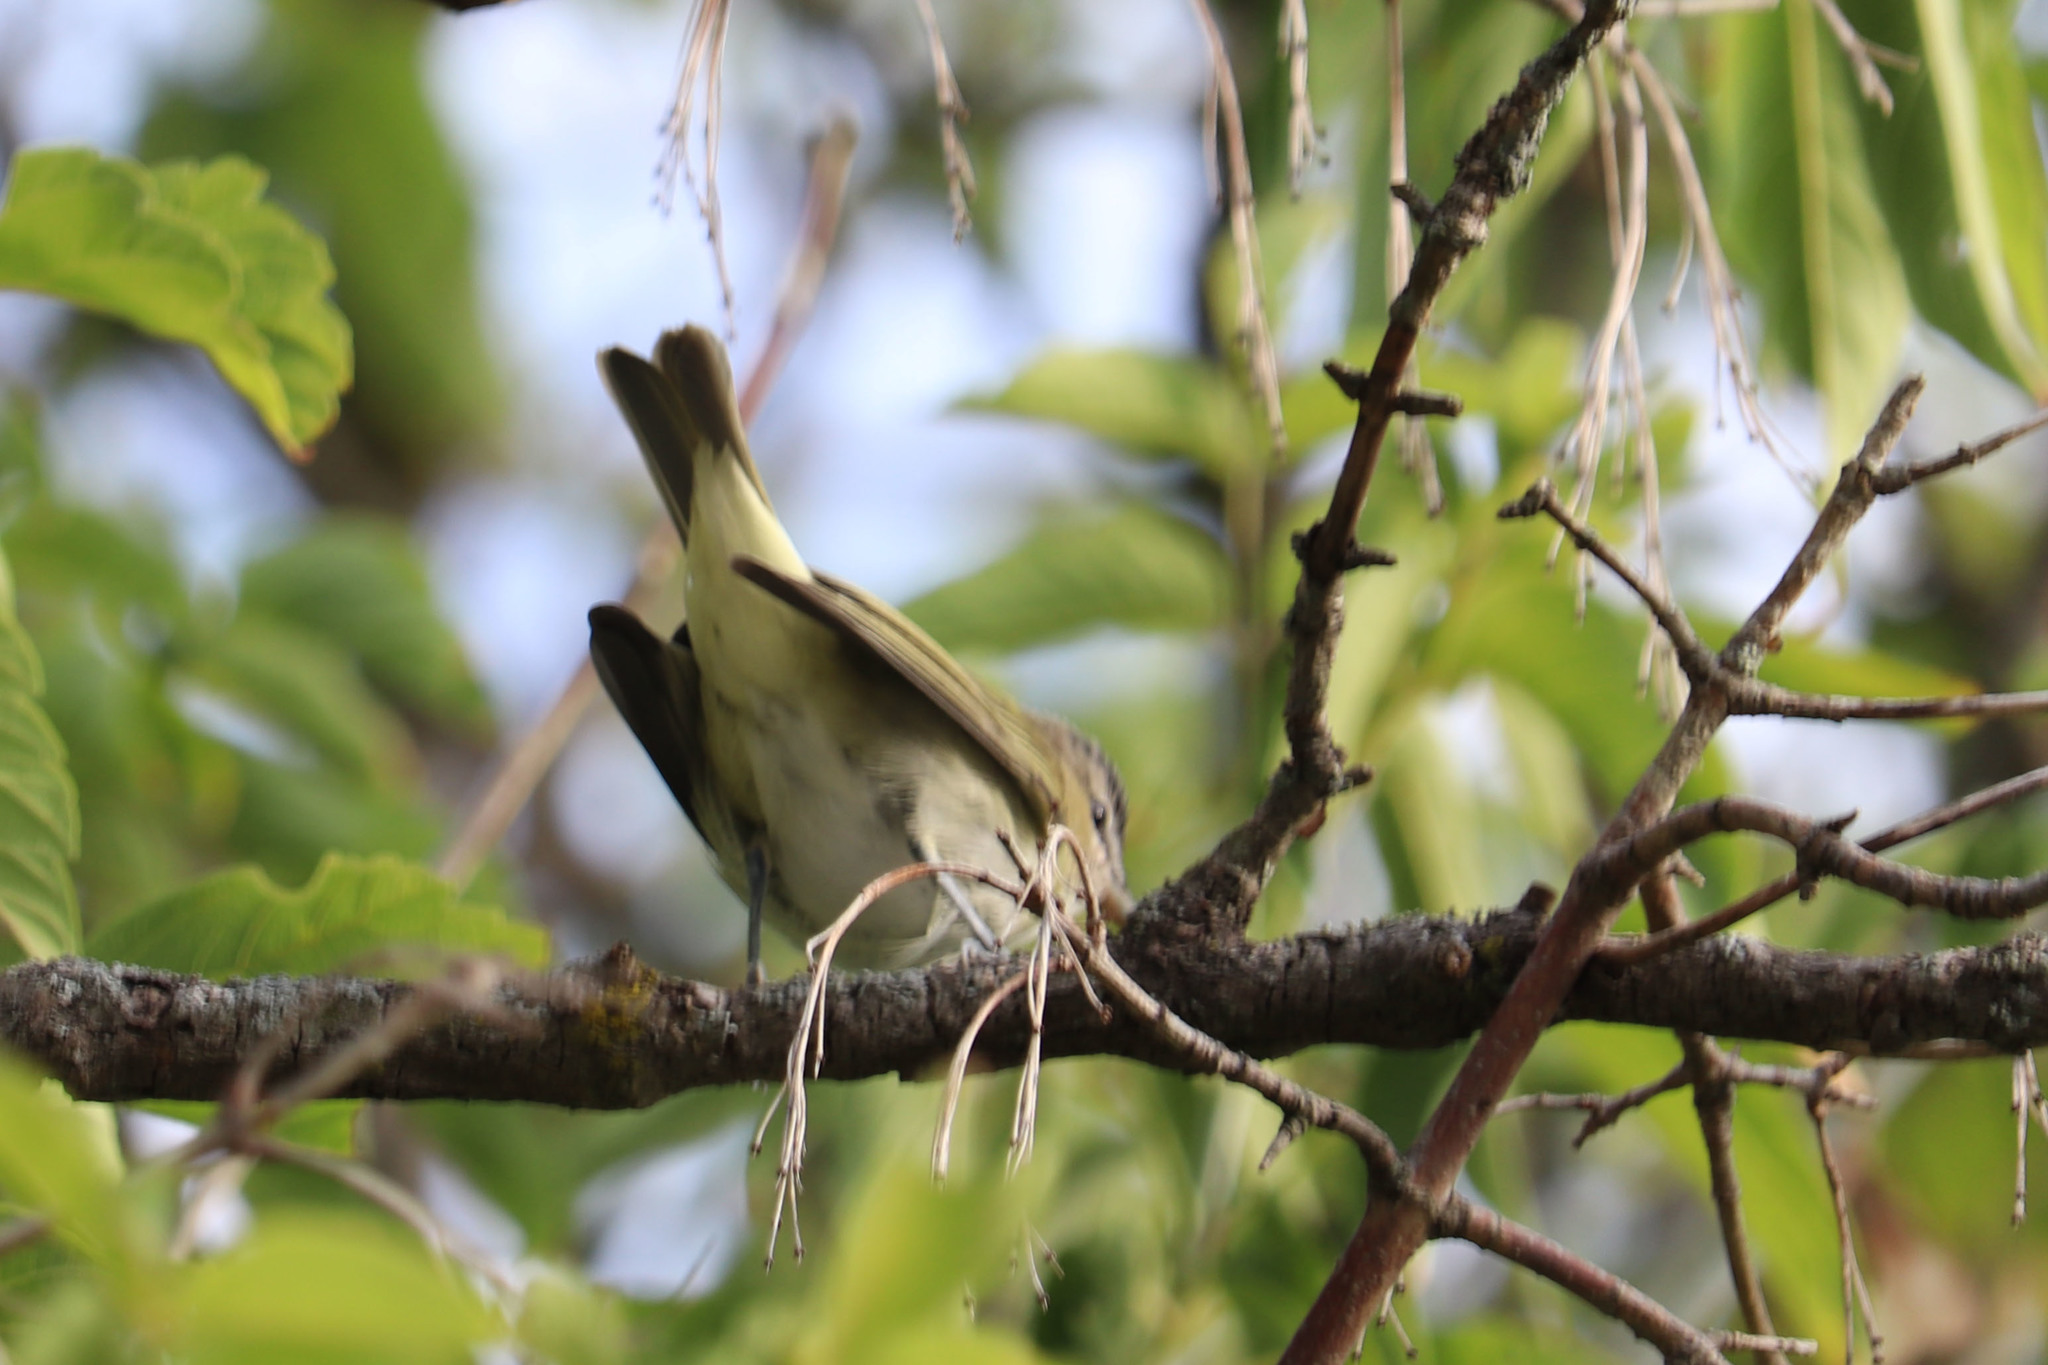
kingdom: Animalia
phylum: Chordata
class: Aves
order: Passeriformes
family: Vireonidae
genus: Vireo
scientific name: Vireo olivaceus
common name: Red-eyed vireo
